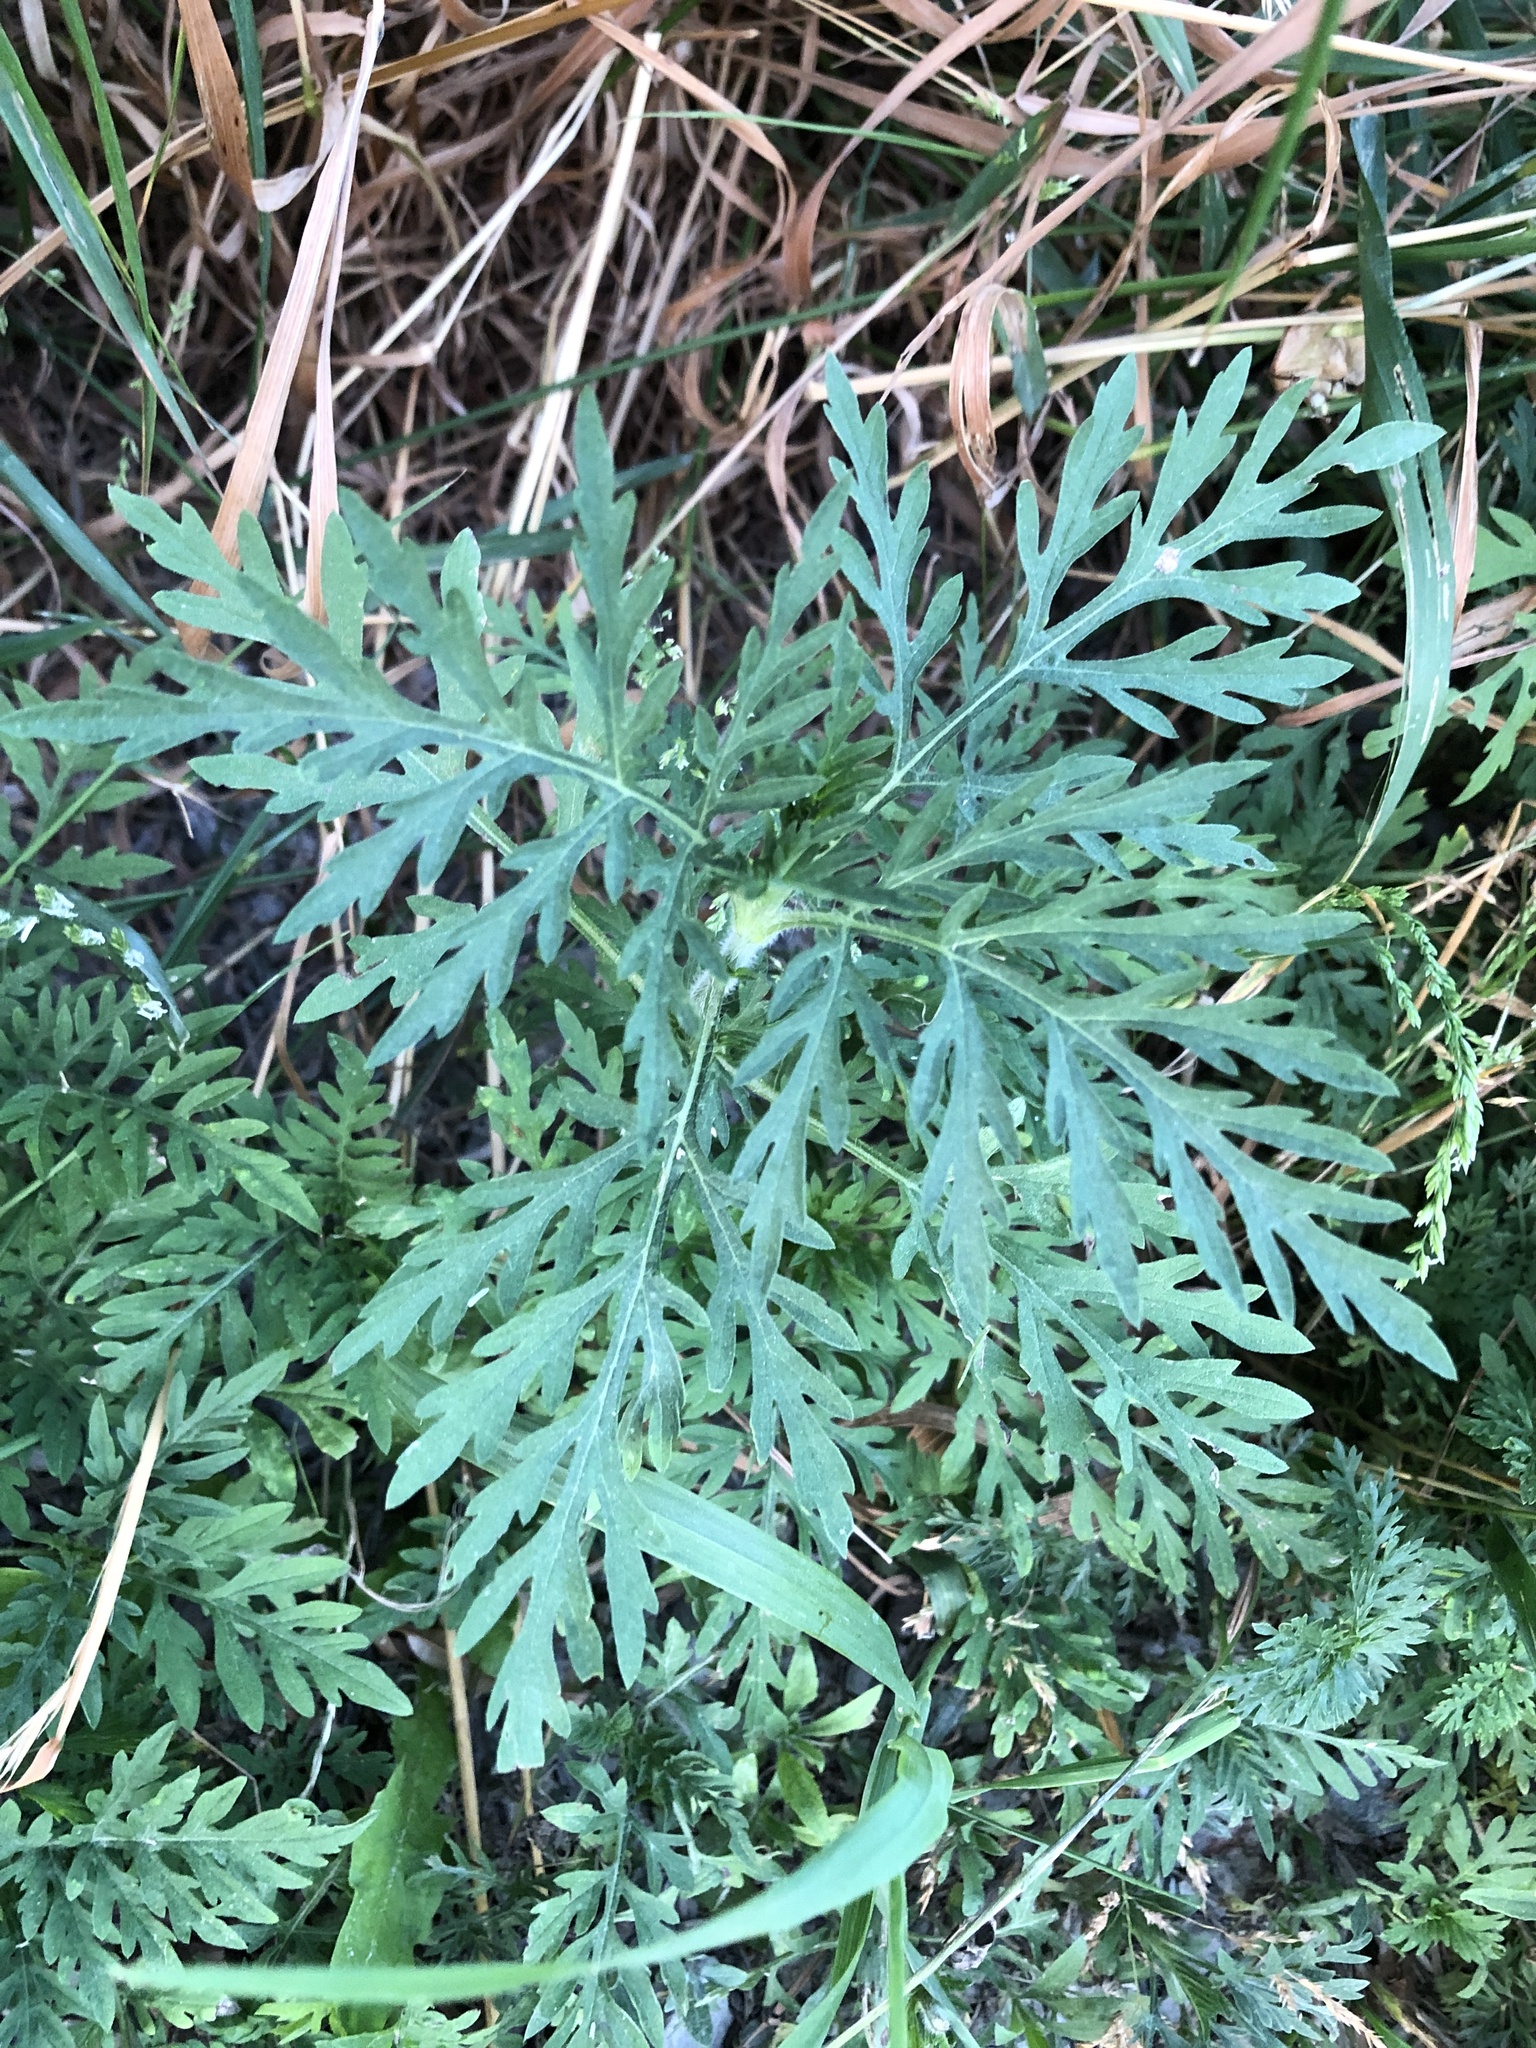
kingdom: Plantae
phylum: Tracheophyta
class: Magnoliopsida
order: Asterales
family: Asteraceae
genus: Ambrosia
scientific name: Ambrosia artemisiifolia
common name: Annual ragweed
